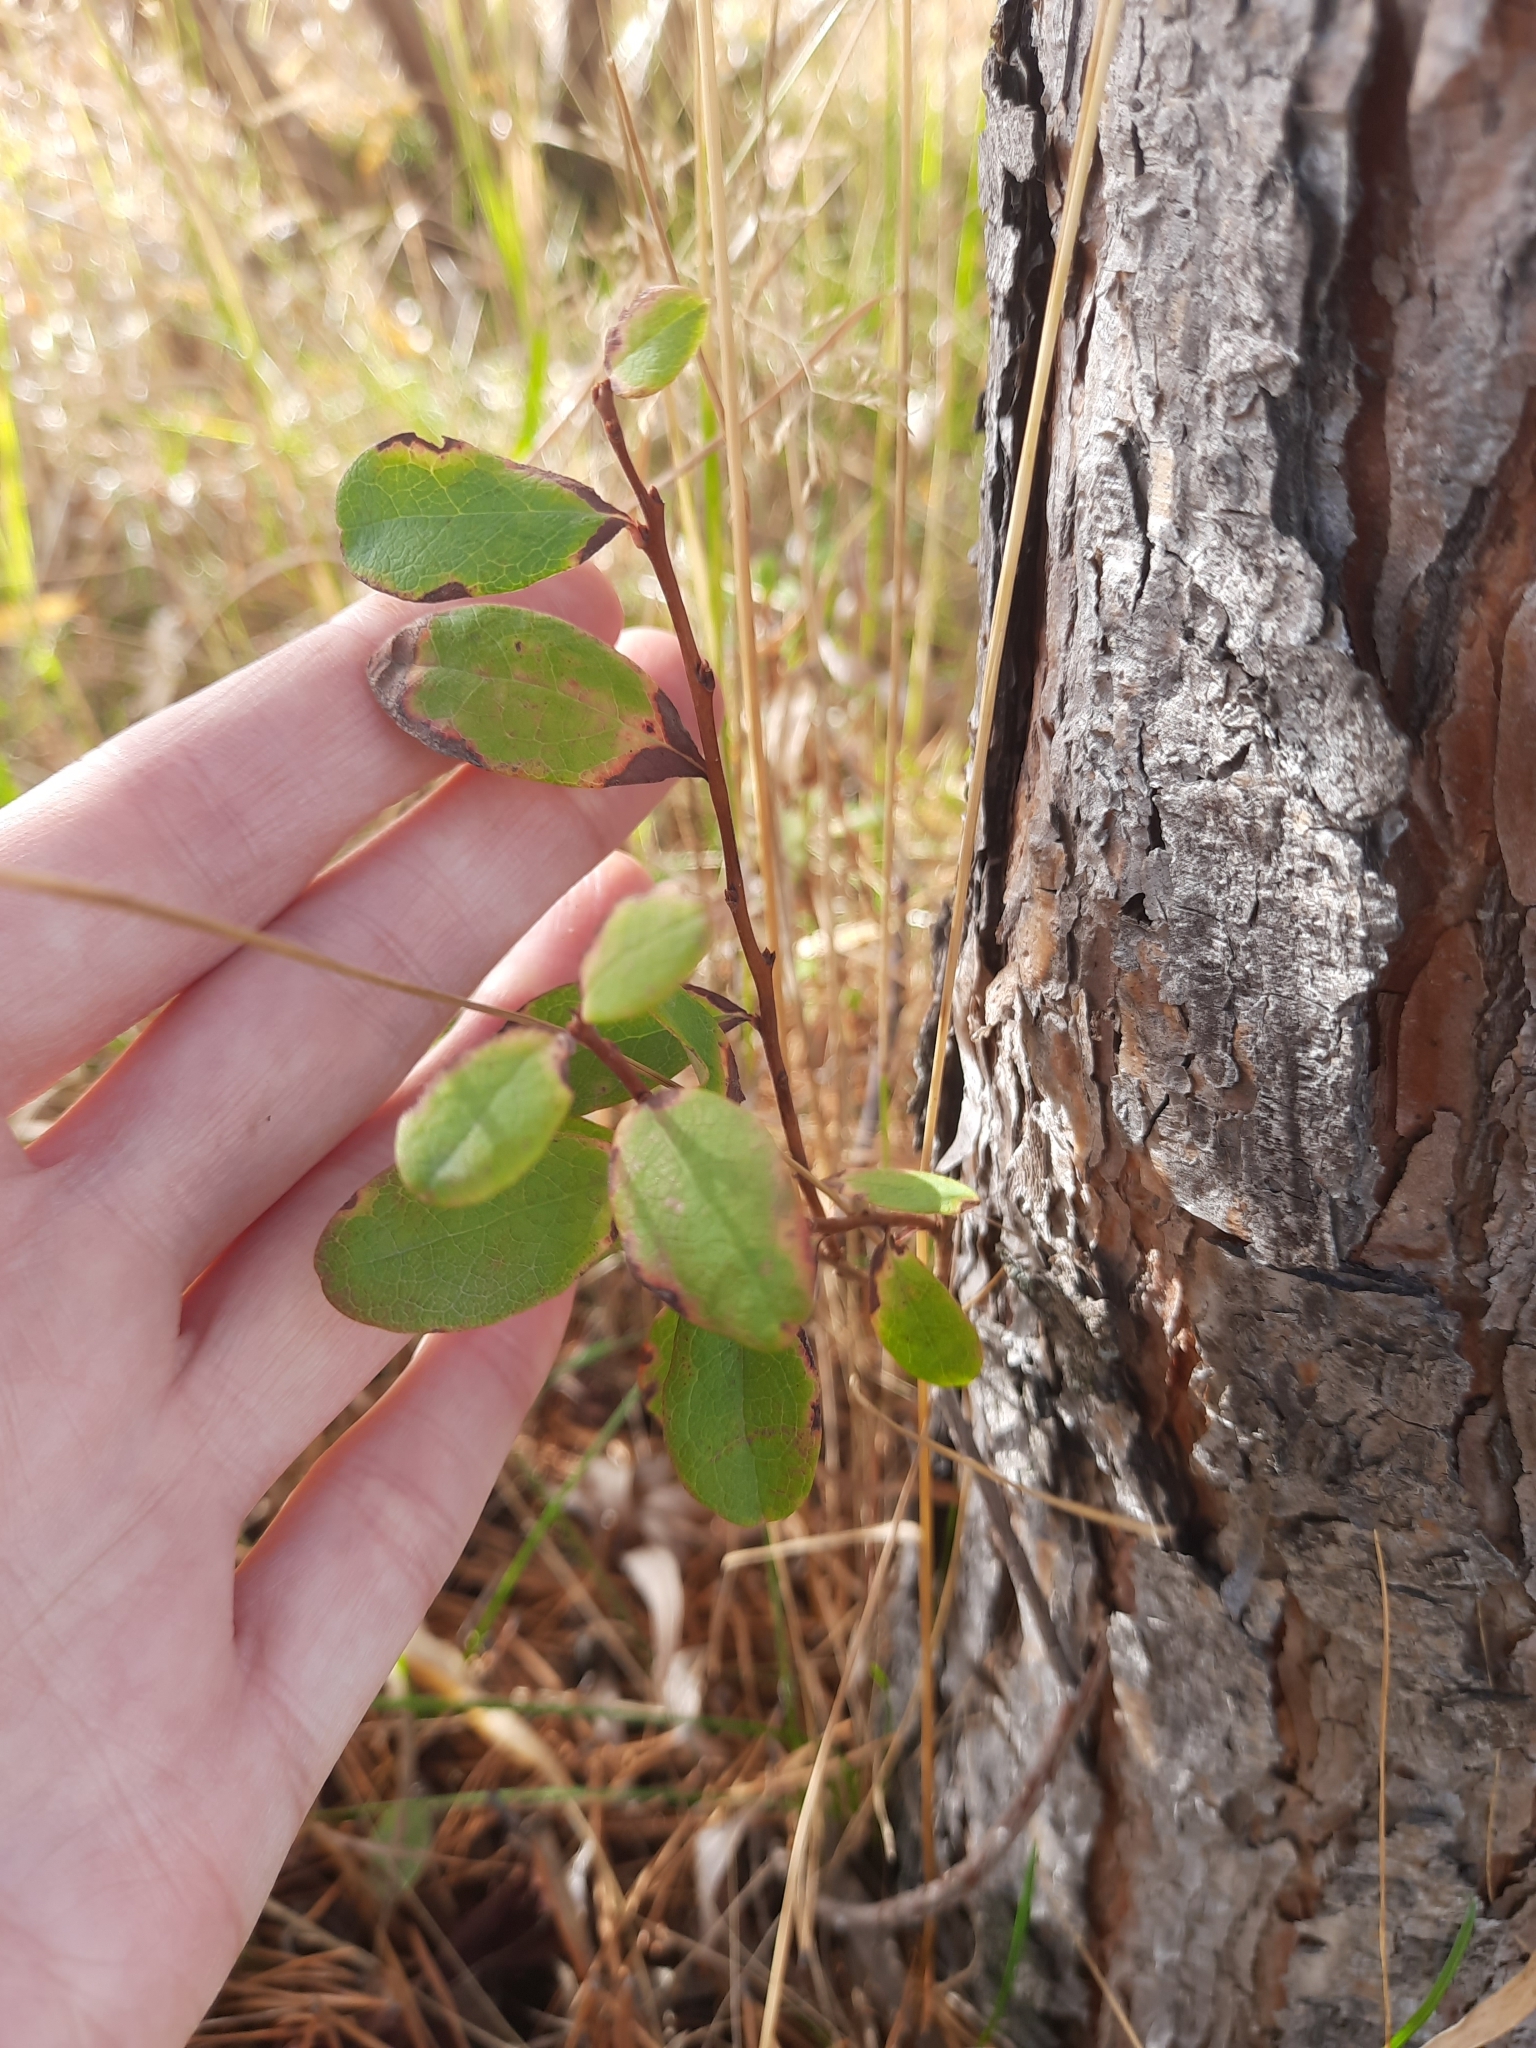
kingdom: Plantae
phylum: Tracheophyta
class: Magnoliopsida
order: Ericales
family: Ericaceae
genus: Vaccinium
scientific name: Vaccinium uliginosum
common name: Bog bilberry
